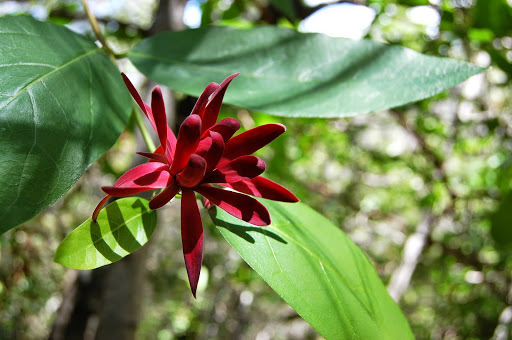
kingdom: Plantae
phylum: Tracheophyta
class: Magnoliopsida
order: Laurales
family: Calycanthaceae
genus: Calycanthus
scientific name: Calycanthus occidentalis
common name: California spicebush
